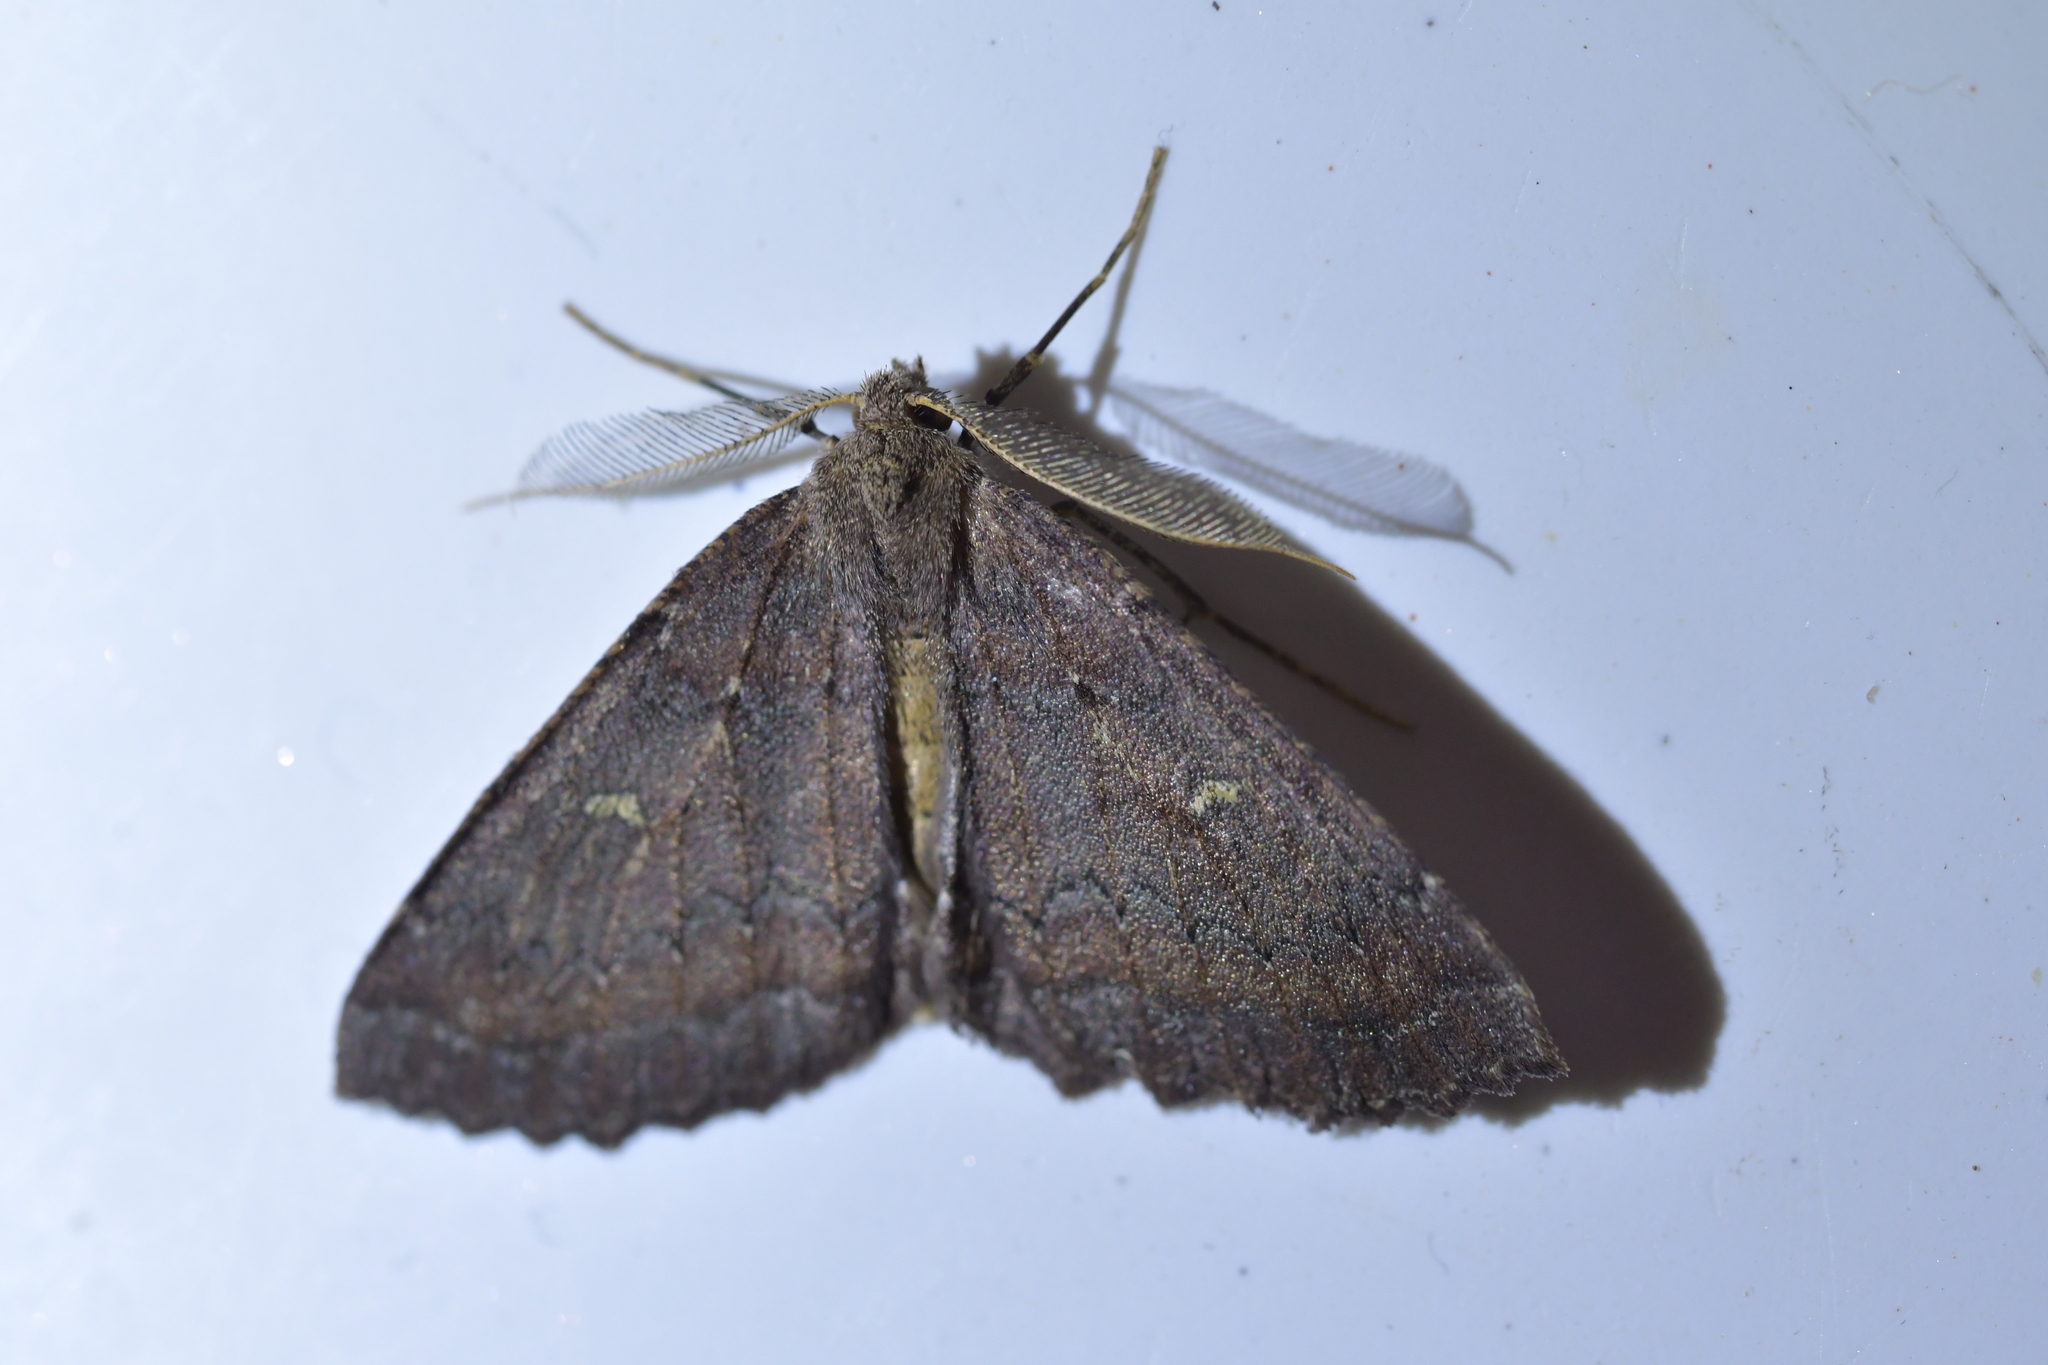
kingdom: Animalia
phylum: Arthropoda
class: Insecta
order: Lepidoptera
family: Geometridae
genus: Cleora
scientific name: Cleora scriptaria
